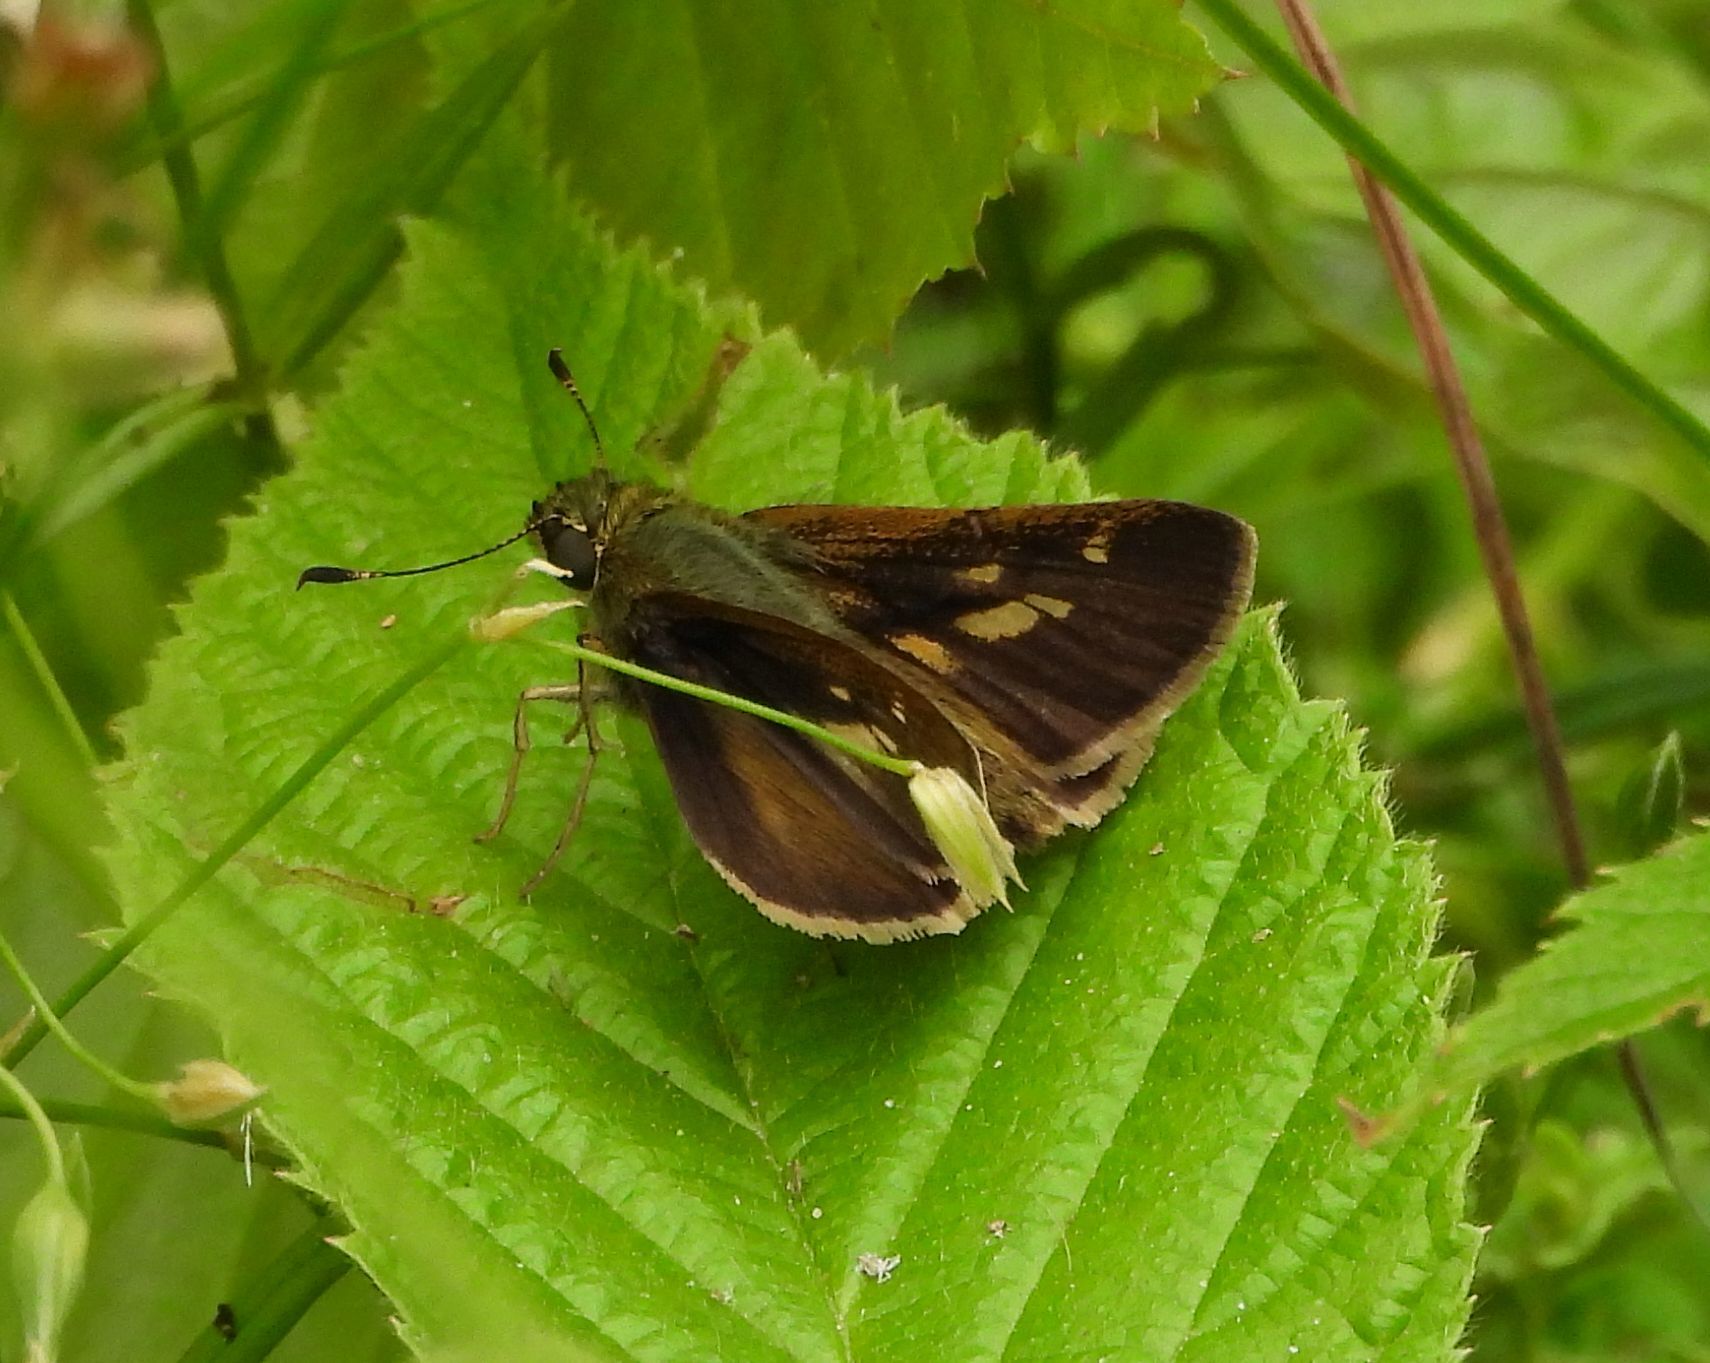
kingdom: Animalia
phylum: Arthropoda
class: Insecta
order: Lepidoptera
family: Hesperiidae
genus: Vernia
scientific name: Vernia verna
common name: Little glassywing
